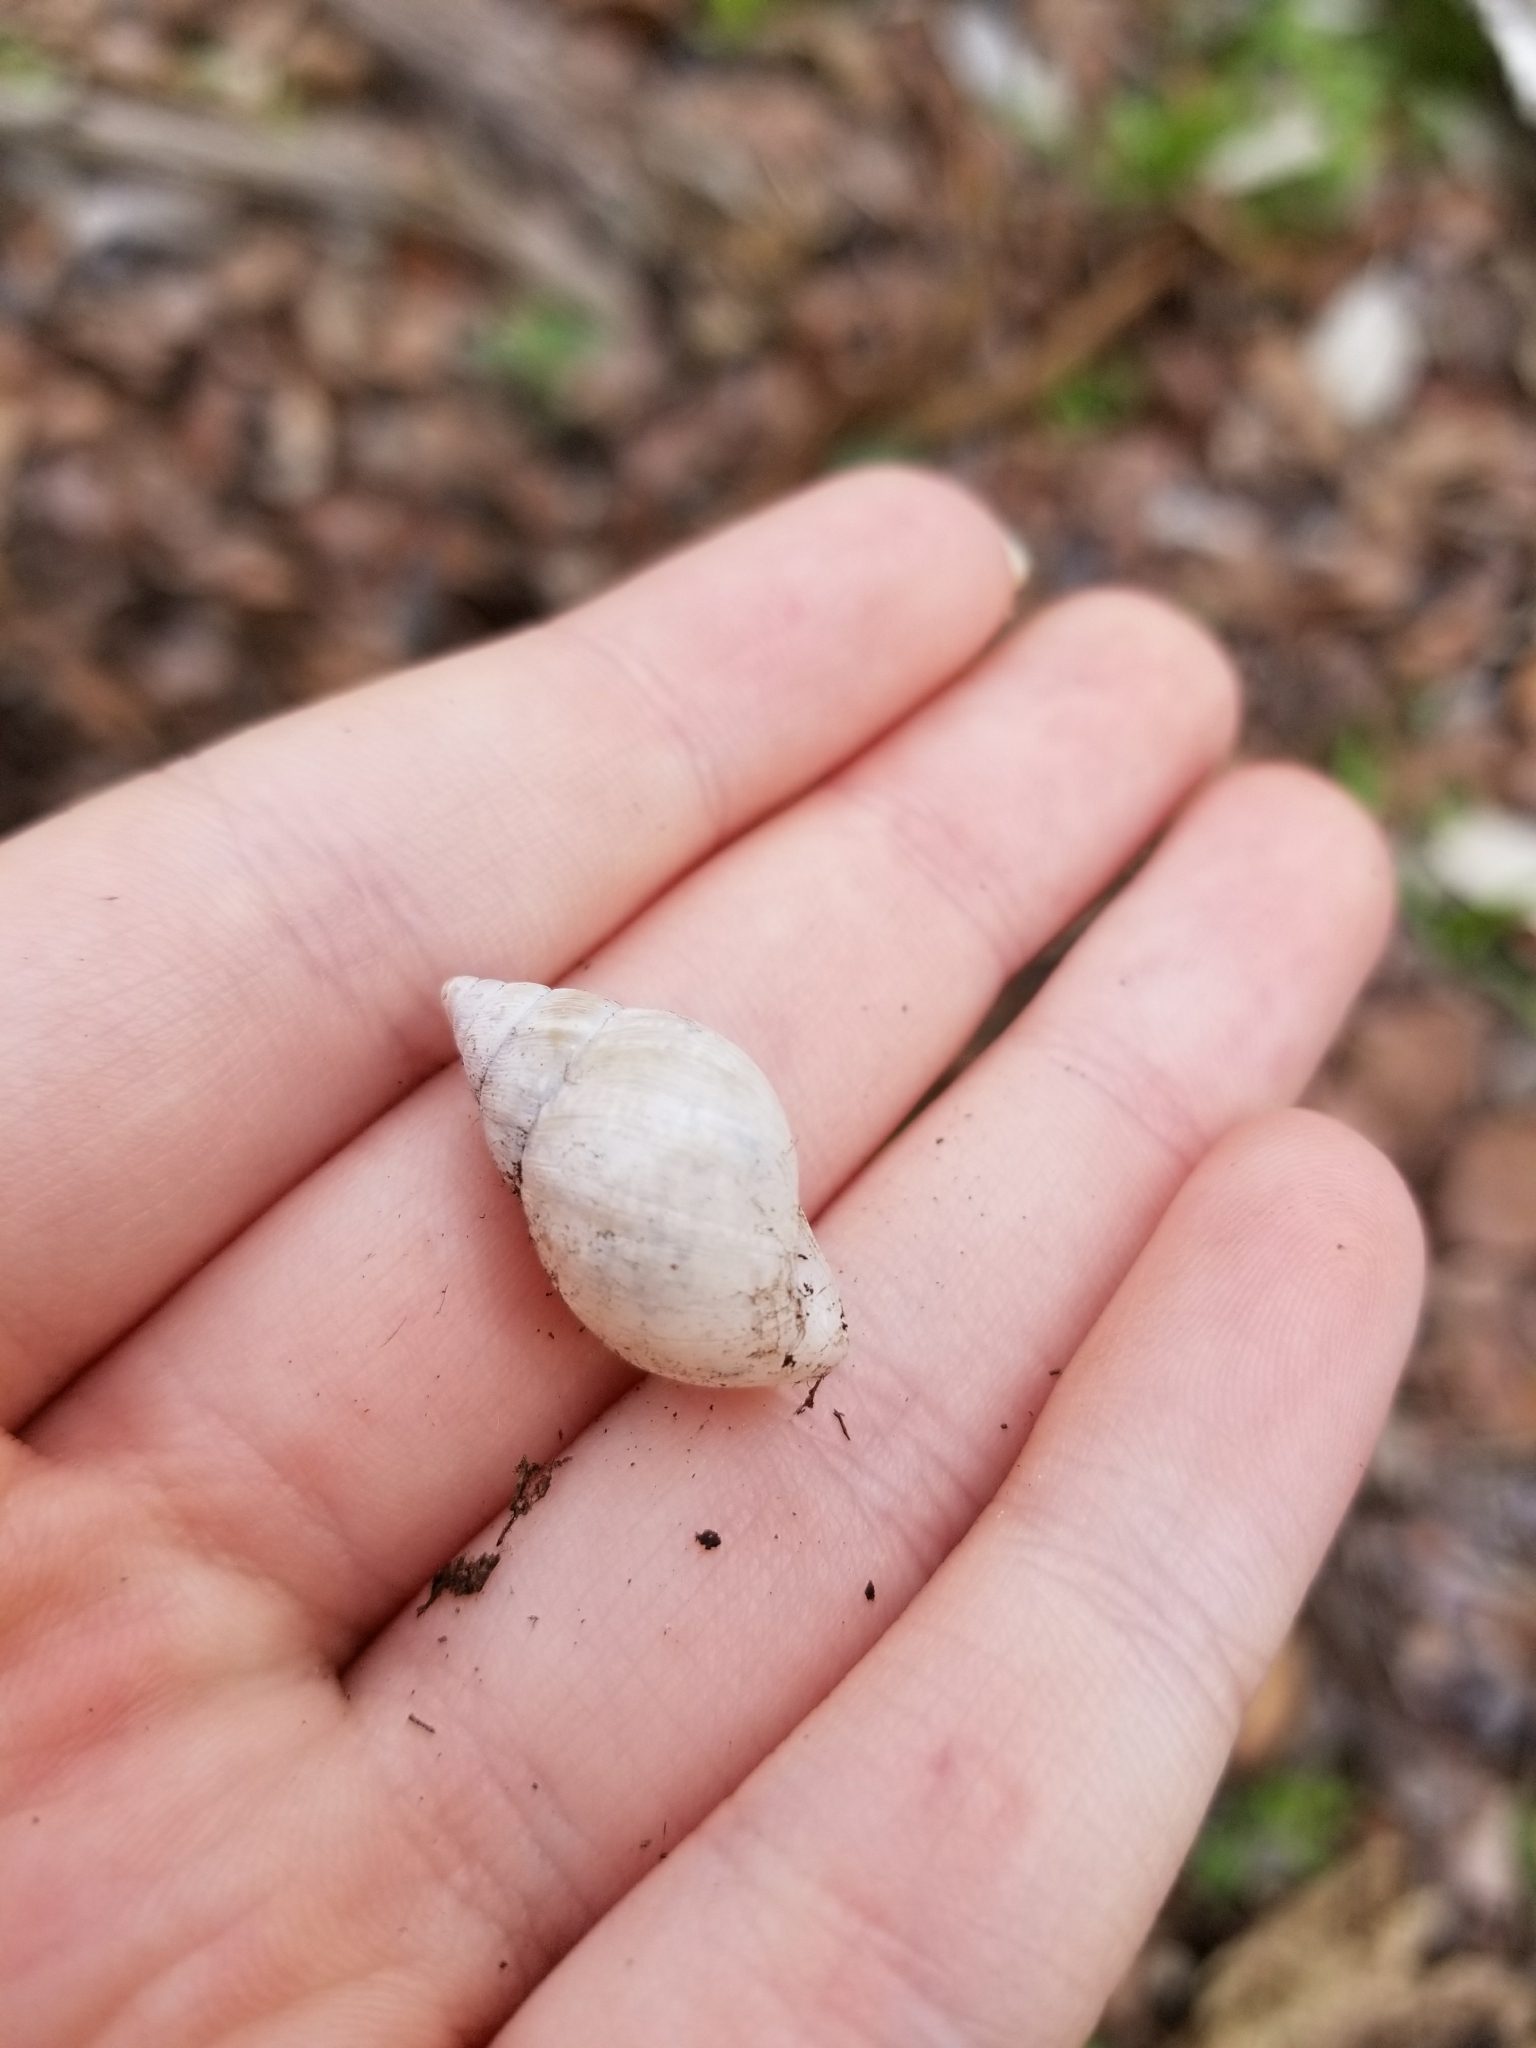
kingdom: Animalia
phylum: Mollusca
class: Gastropoda
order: Stylommatophora
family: Bulimulidae
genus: Rabdotus
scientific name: Rabdotus dealbatus
